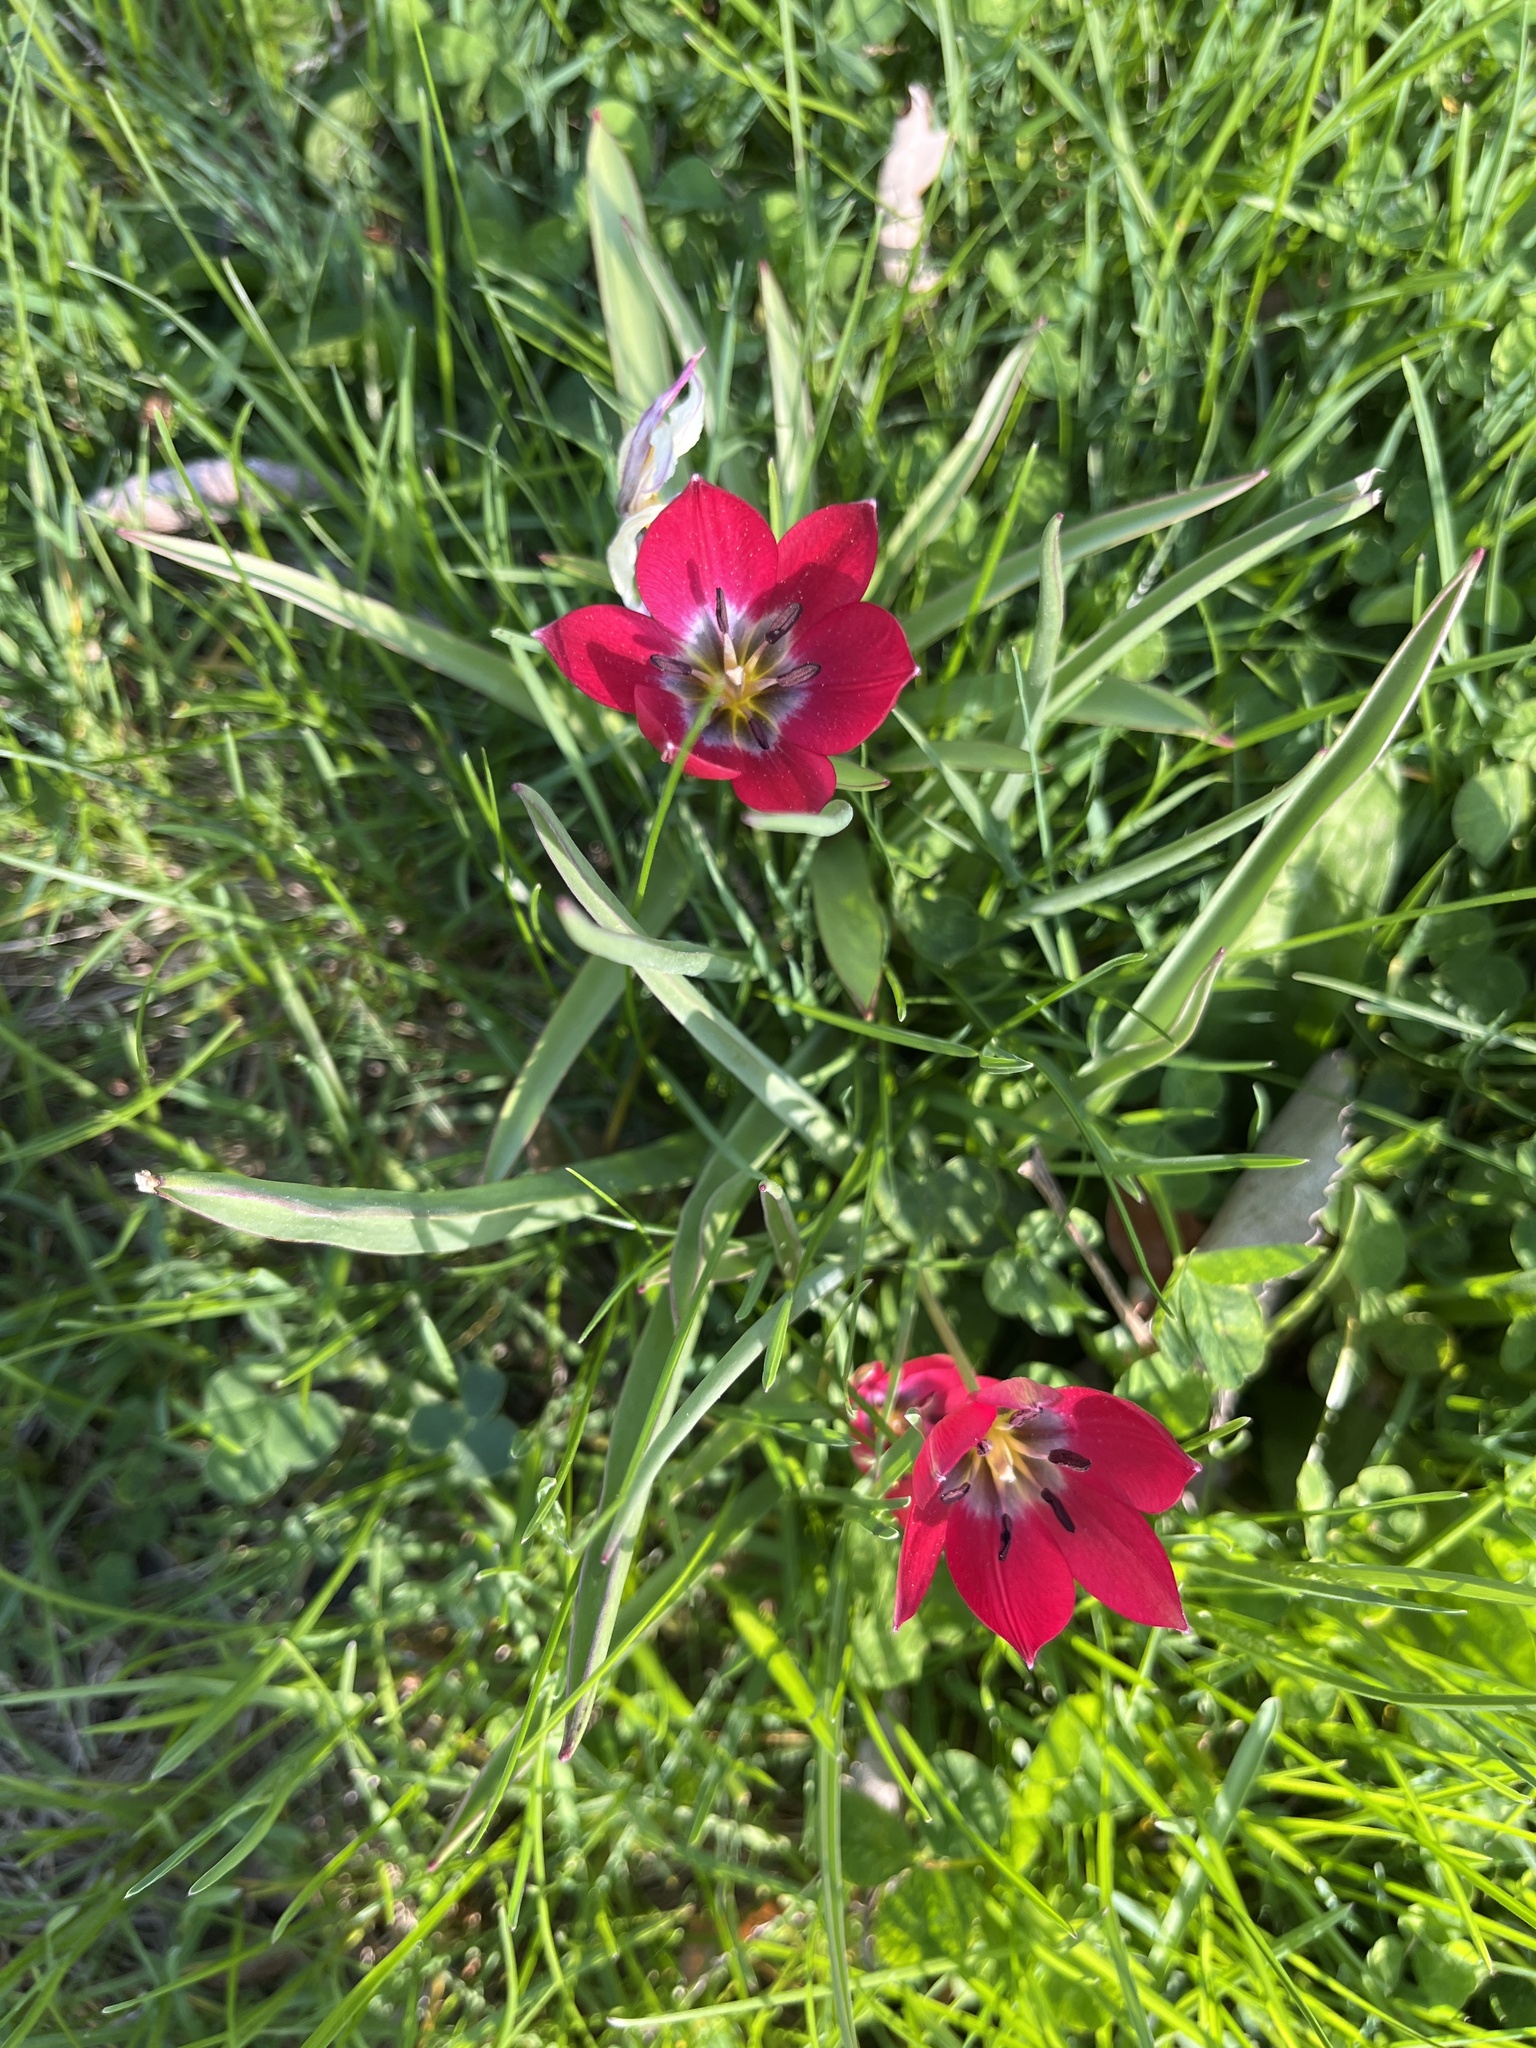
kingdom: Plantae
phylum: Tracheophyta
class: Liliopsida
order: Liliales
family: Liliaceae
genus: Tulipa
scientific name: Tulipa gesneriana
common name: Garden tulip
